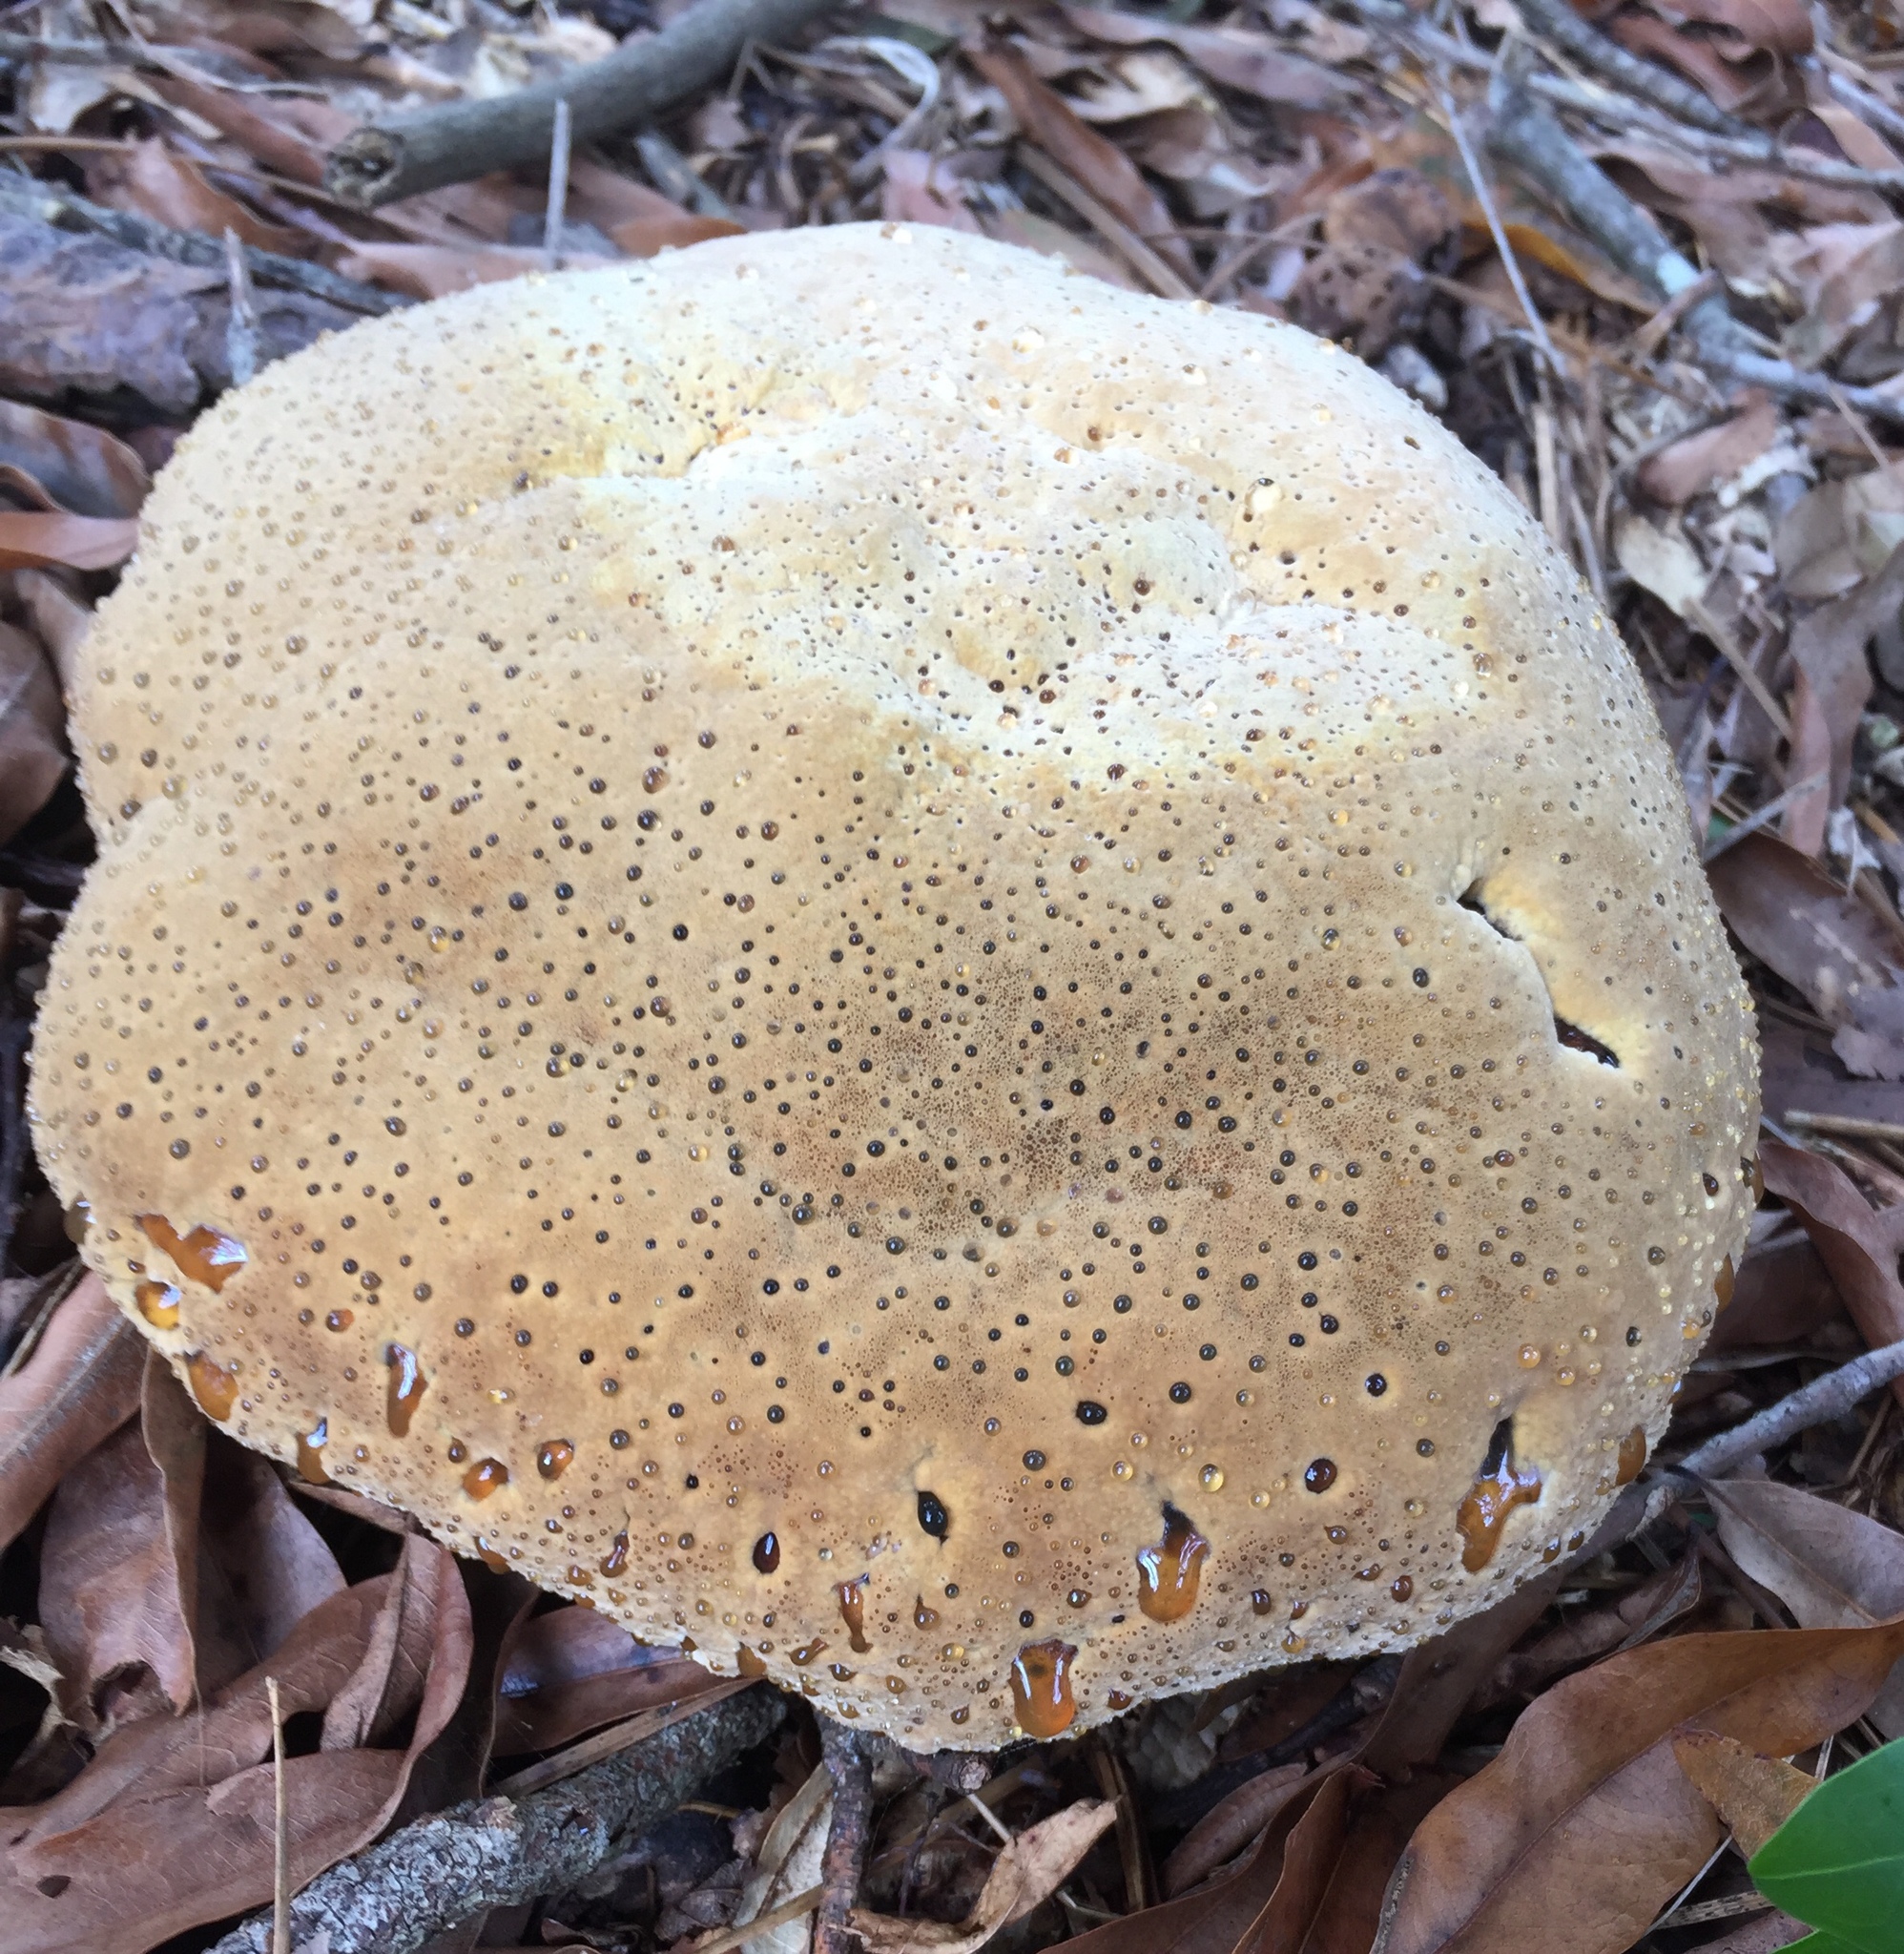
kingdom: Fungi
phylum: Basidiomycota
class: Agaricomycetes
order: Hymenochaetales
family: Hymenochaetaceae
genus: Pseudoinonotus
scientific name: Pseudoinonotus dryadeus
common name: Oak bracket
